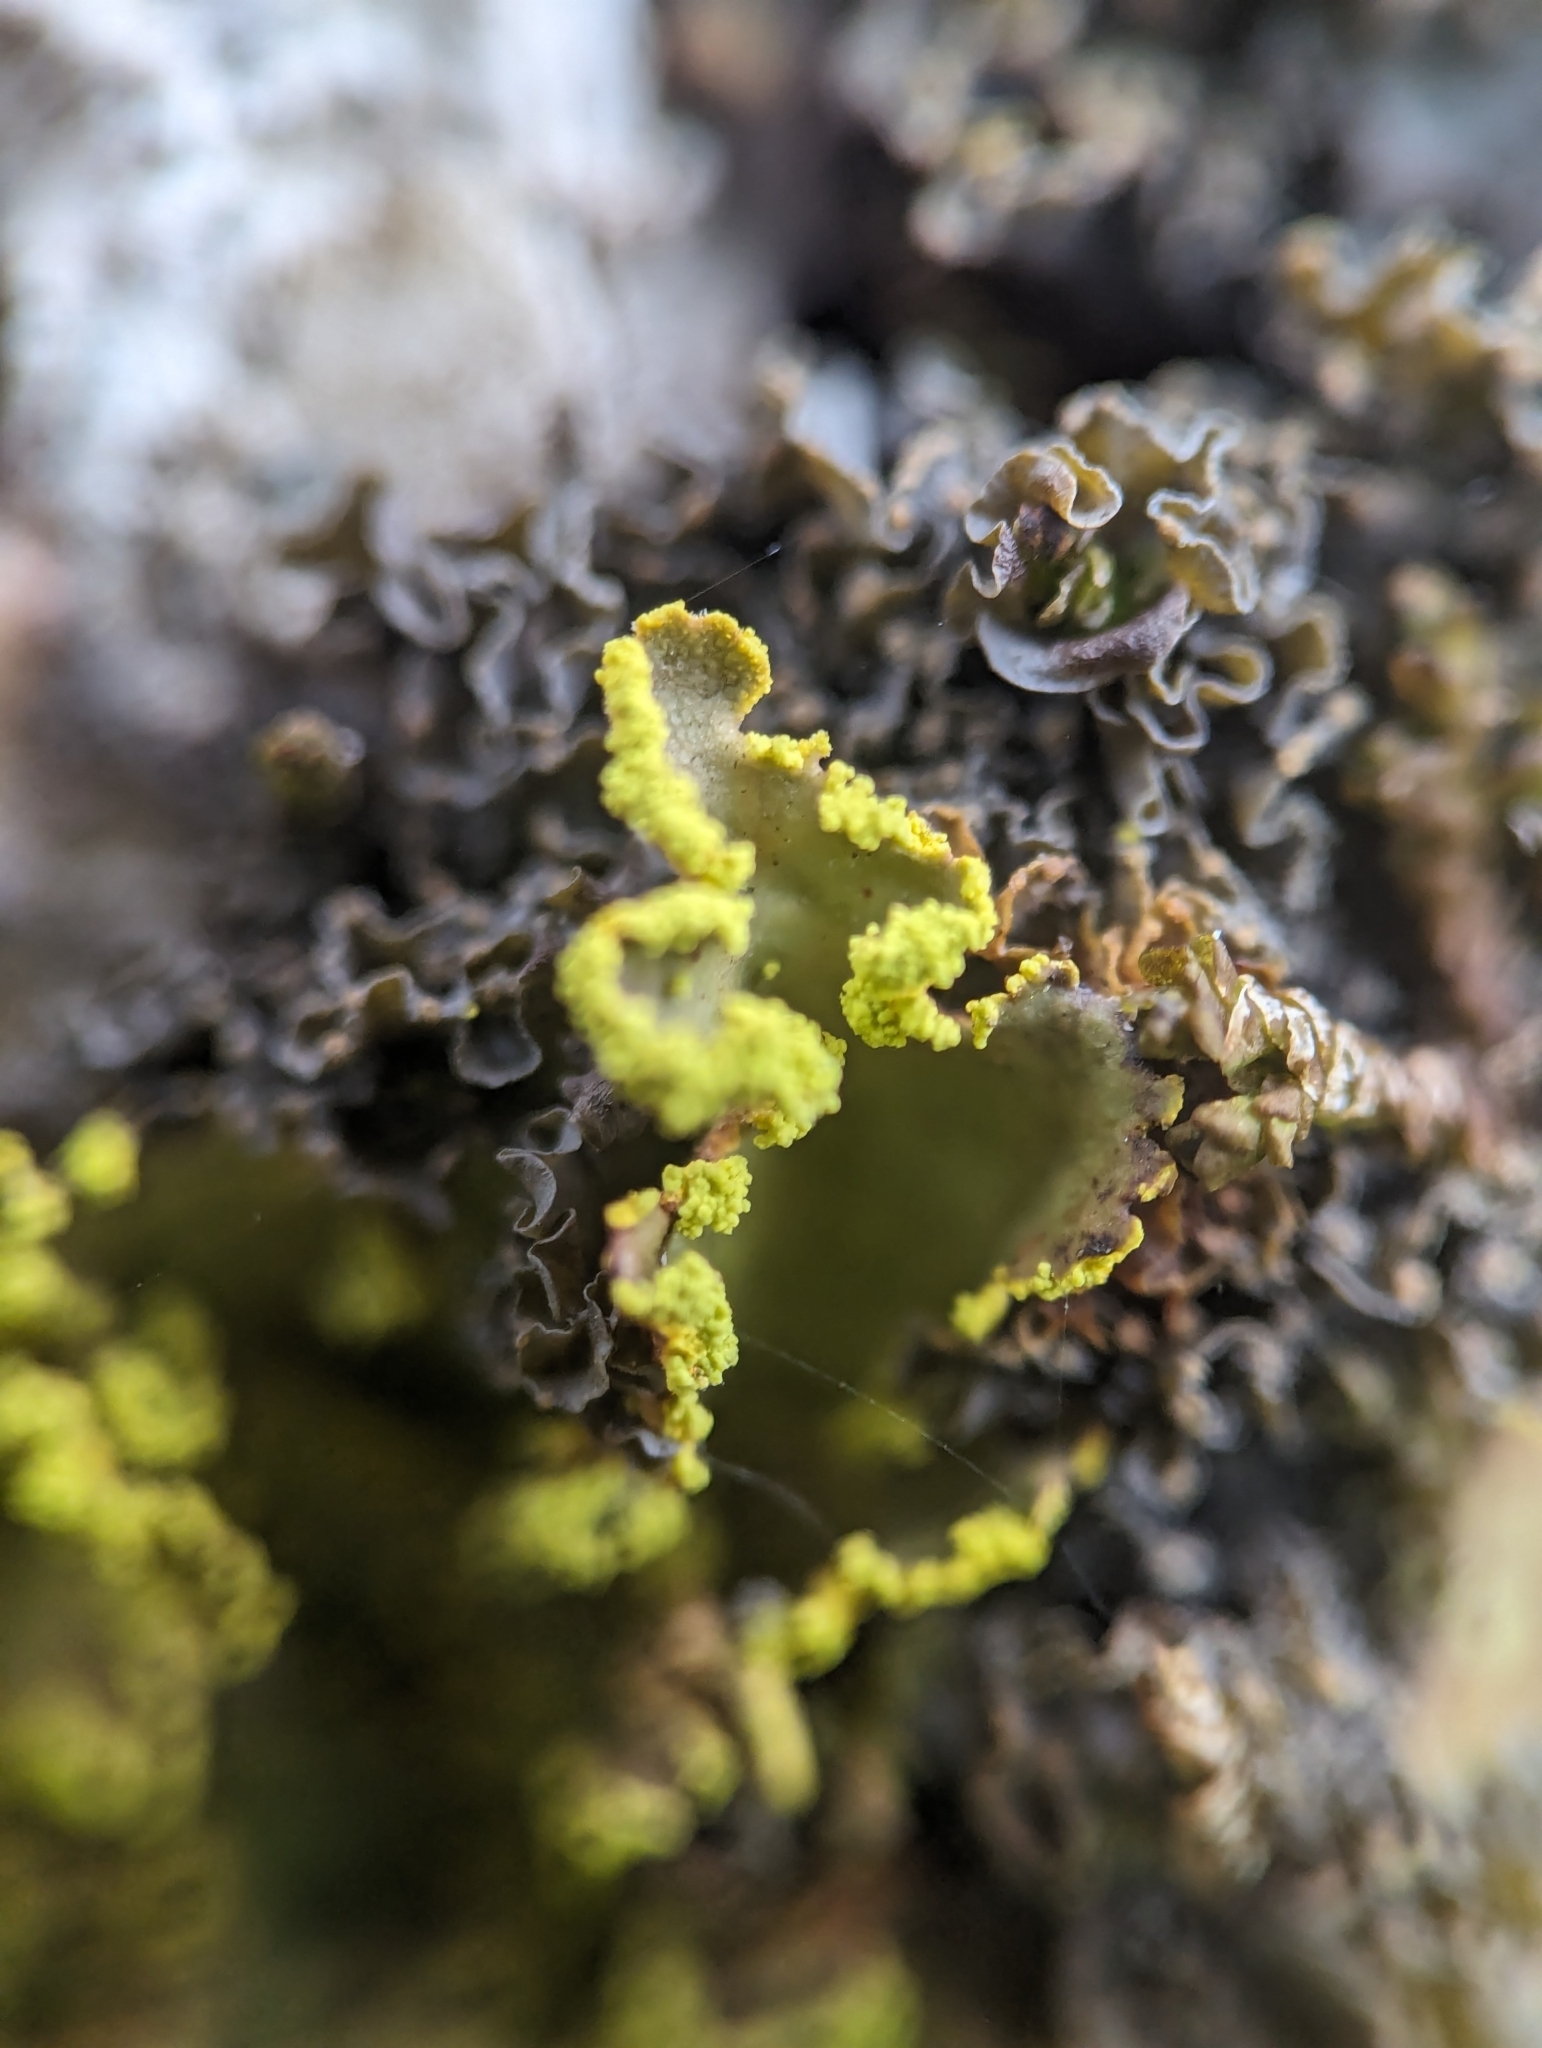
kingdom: Fungi
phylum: Ascomycota
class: Lecanoromycetes
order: Peltigerales
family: Lobariaceae
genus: Pseudocyphellaria
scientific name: Pseudocyphellaria aurata
